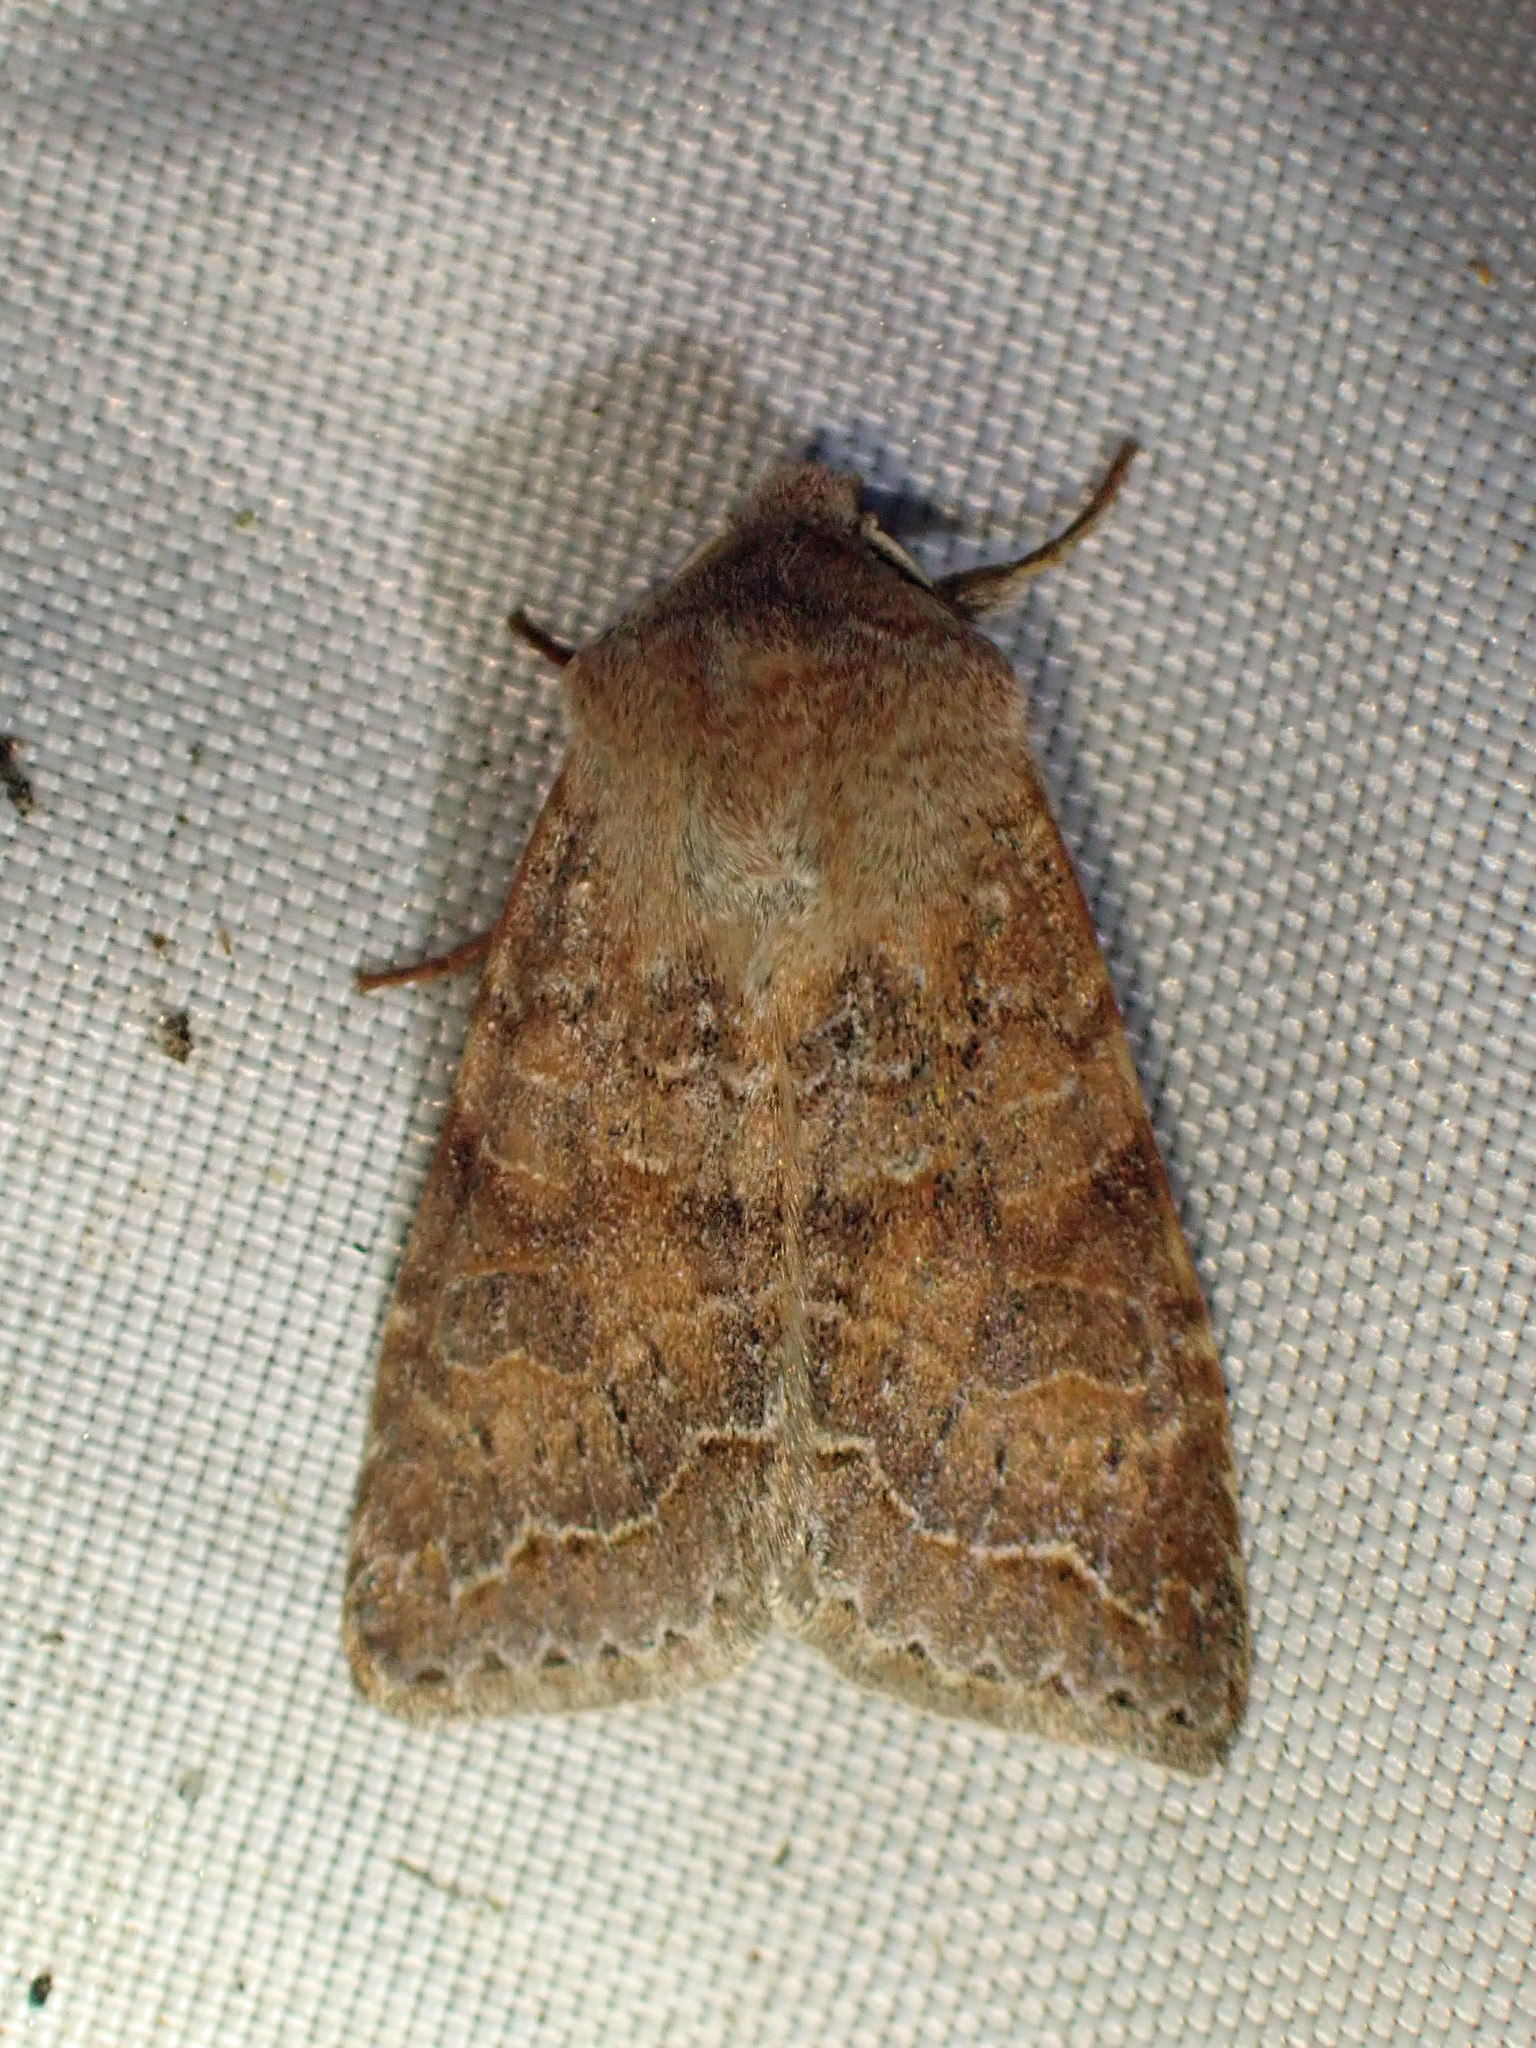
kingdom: Animalia
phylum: Arthropoda
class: Insecta
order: Lepidoptera
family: Noctuidae
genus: Orthosia
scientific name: Orthosia revicta
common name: Rusty whitesided caterpillar
